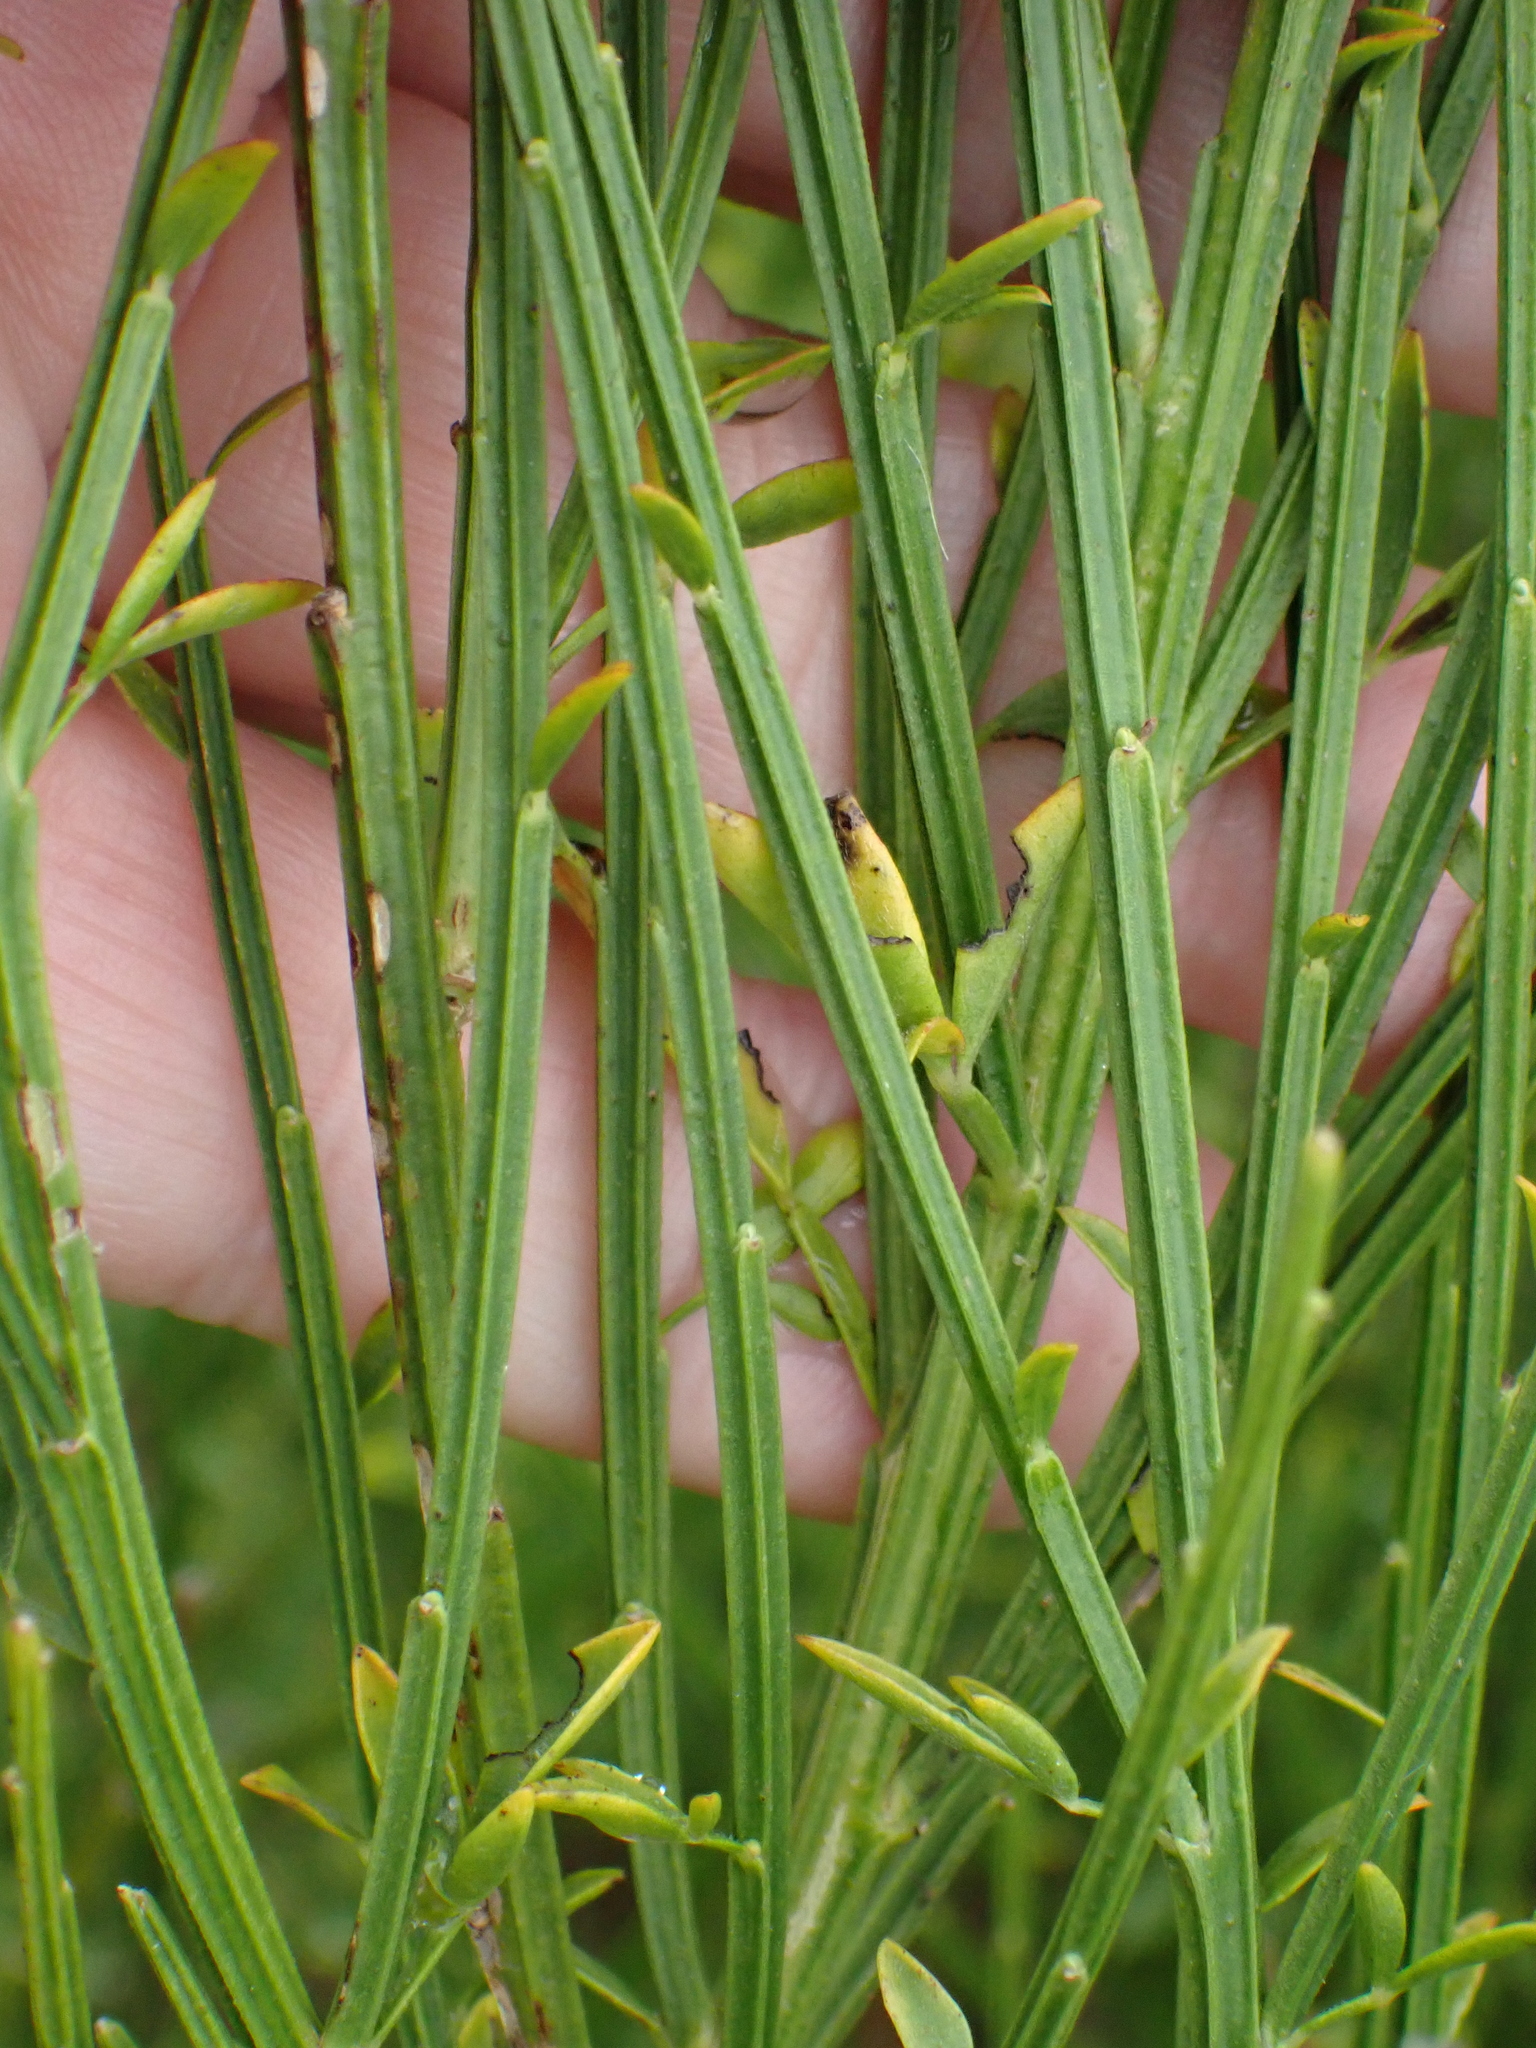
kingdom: Plantae
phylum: Tracheophyta
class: Magnoliopsida
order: Fabales
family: Fabaceae
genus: Cytisus
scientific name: Cytisus scoparius
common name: Scotch broom
